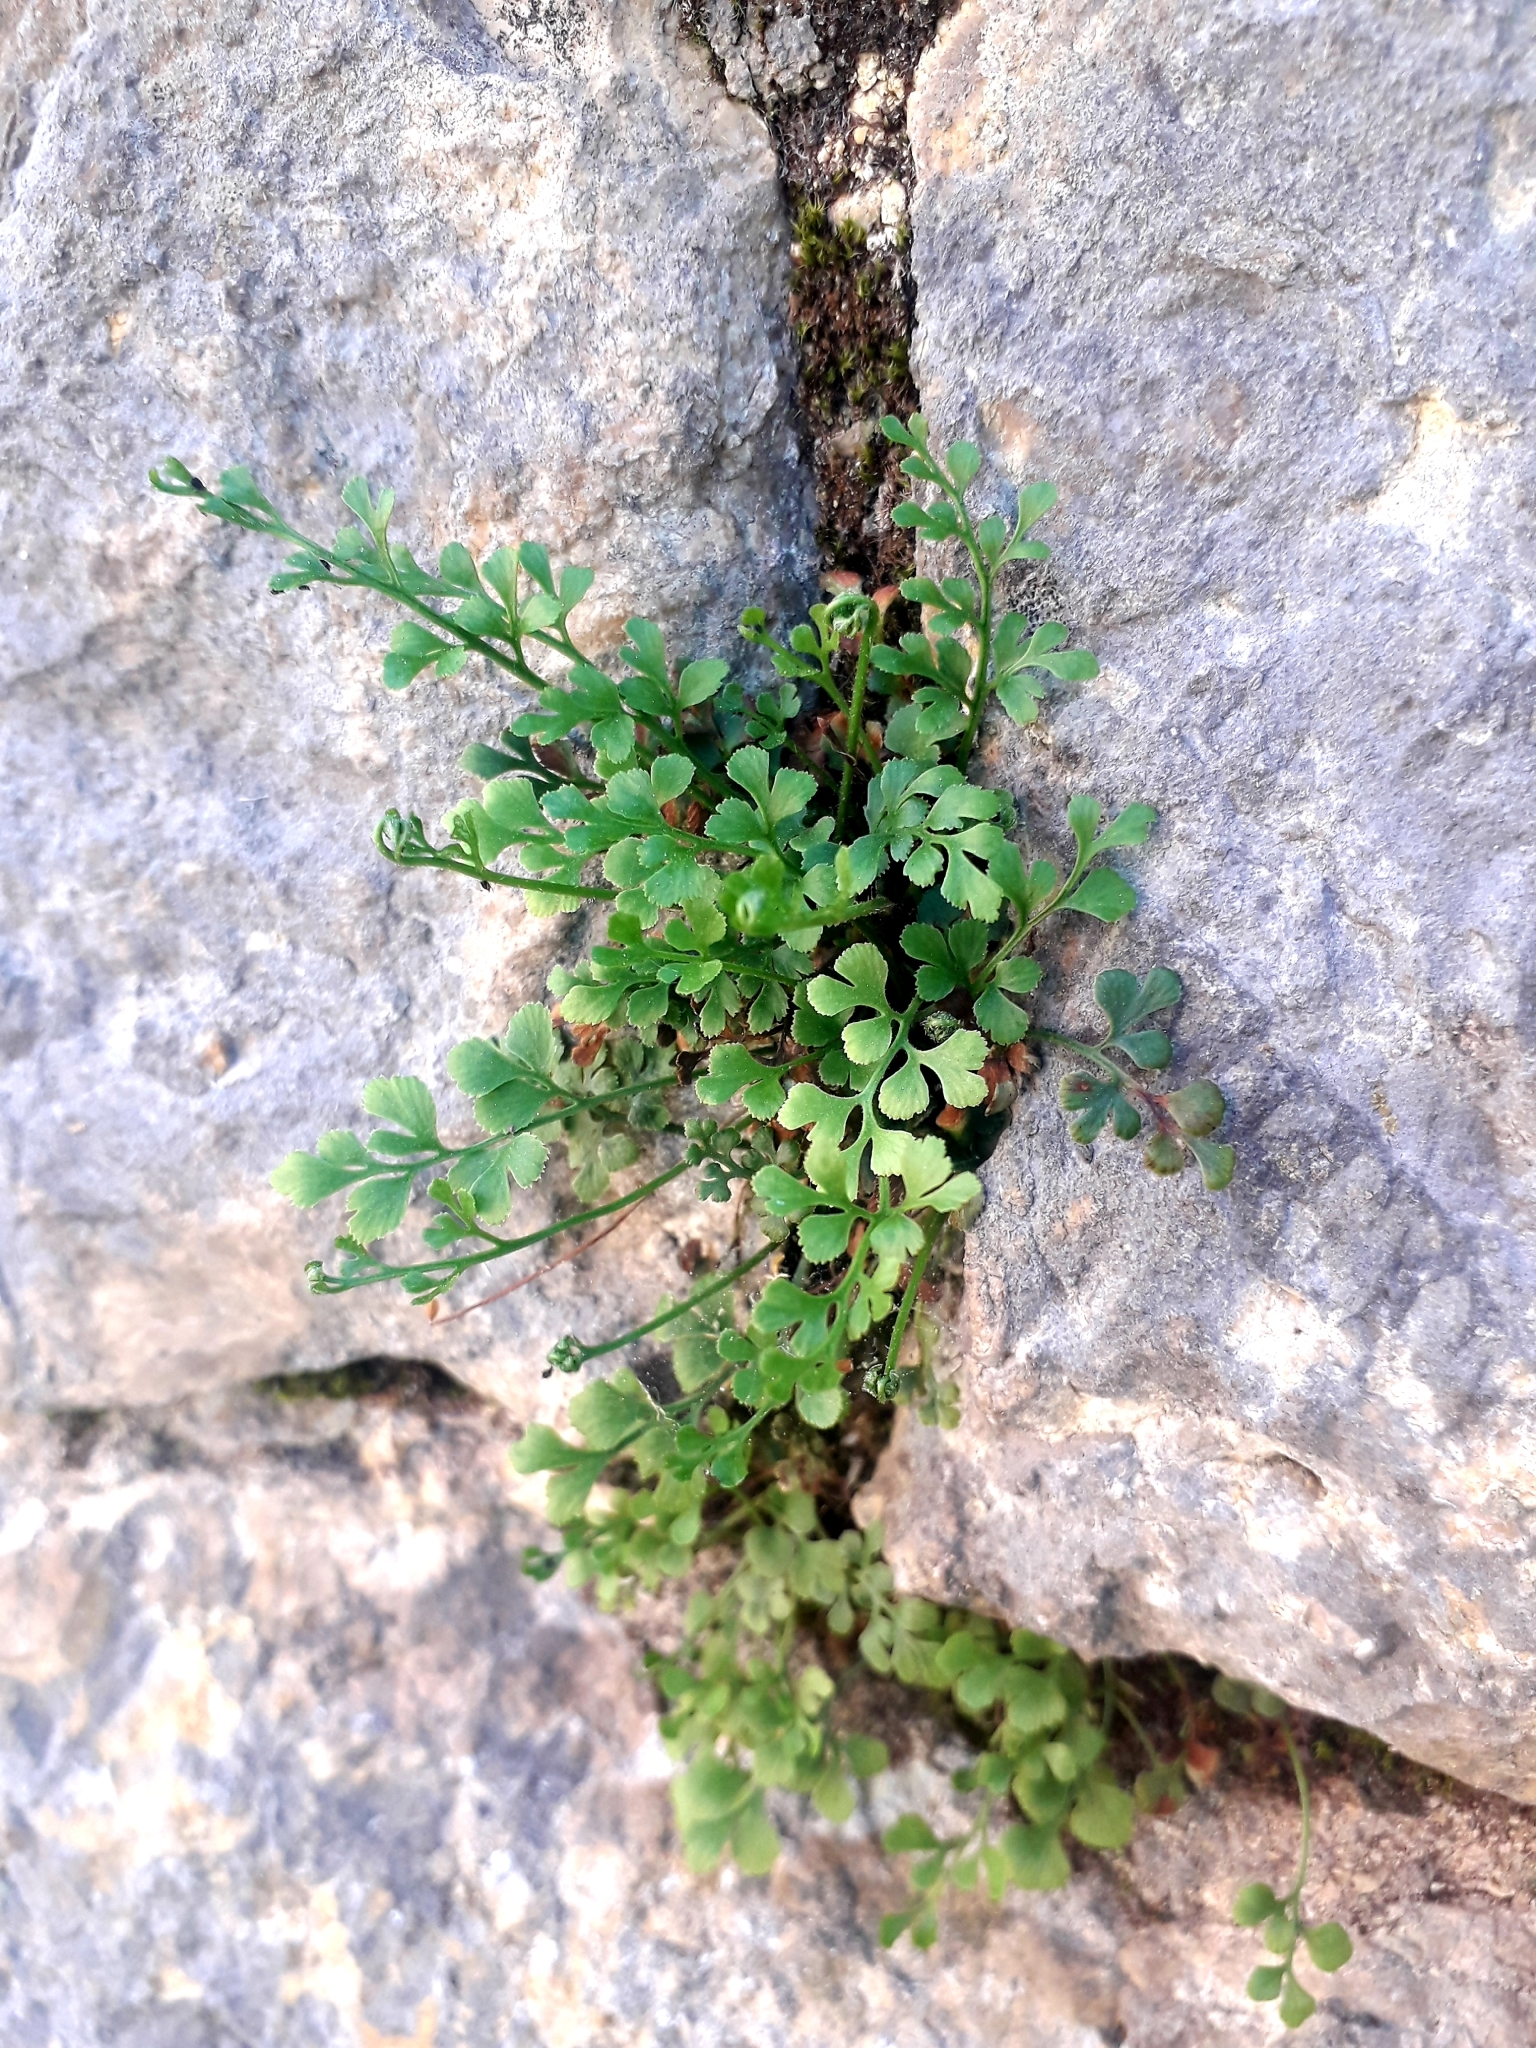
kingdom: Plantae
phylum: Tracheophyta
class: Polypodiopsida
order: Polypodiales
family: Aspleniaceae
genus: Asplenium
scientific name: Asplenium ruta-muraria
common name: Wall-rue
